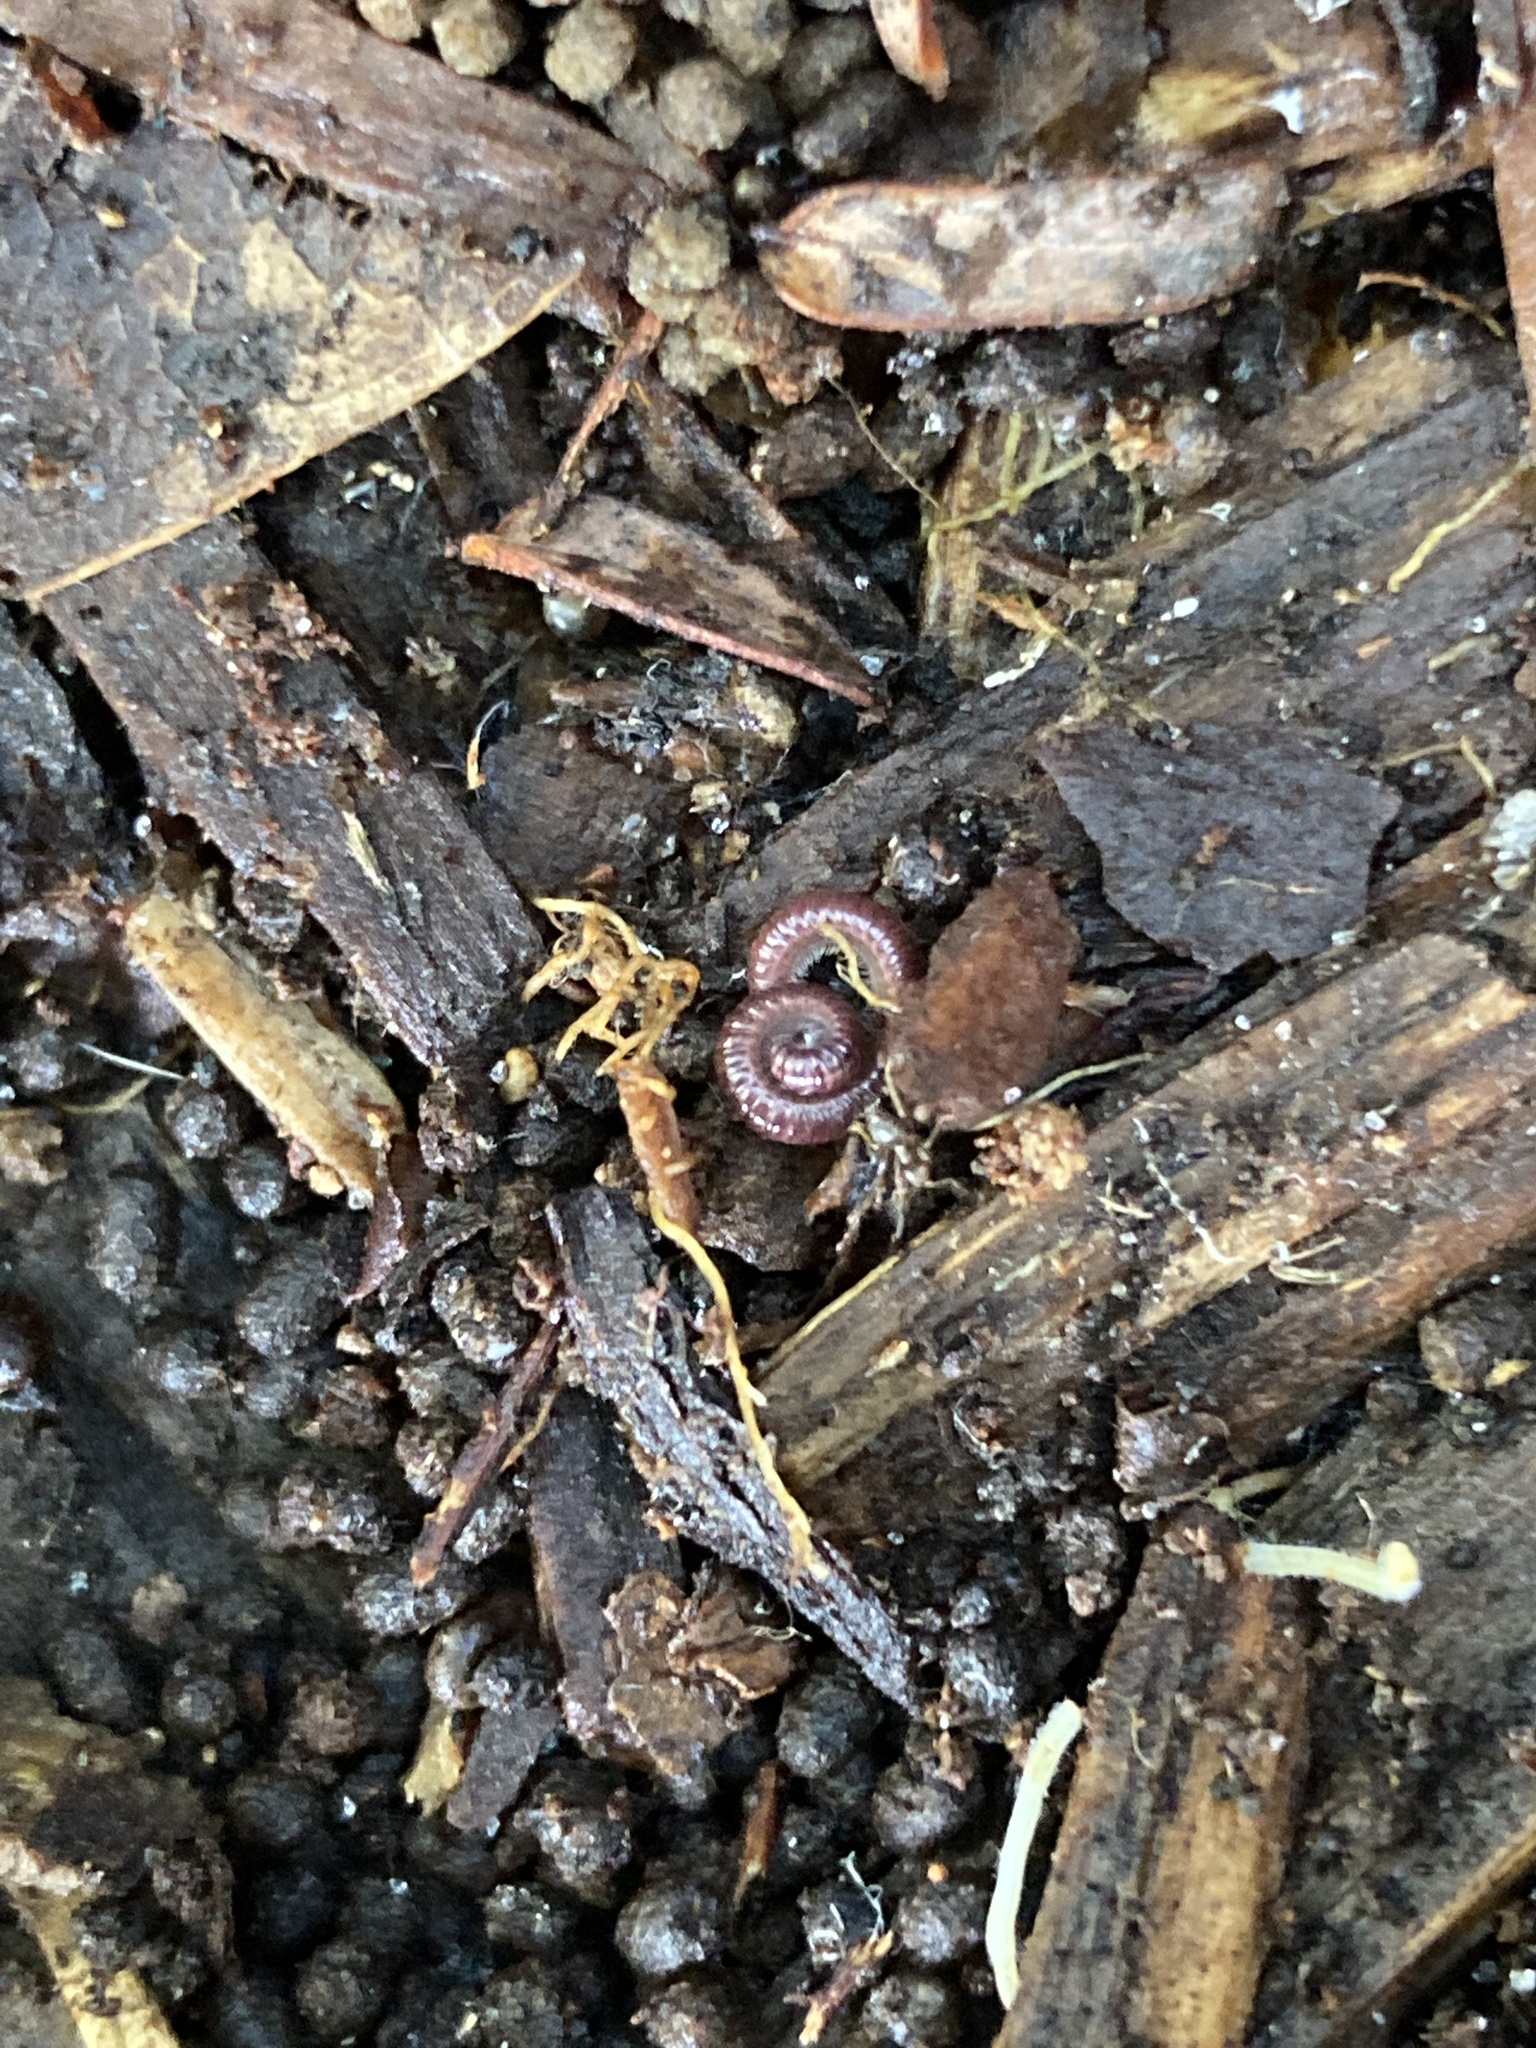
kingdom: Animalia
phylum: Arthropoda
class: Diplopoda
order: Polyzoniida
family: Siphonotidae
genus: Rhinotus
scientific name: Rhinotus purpureus
